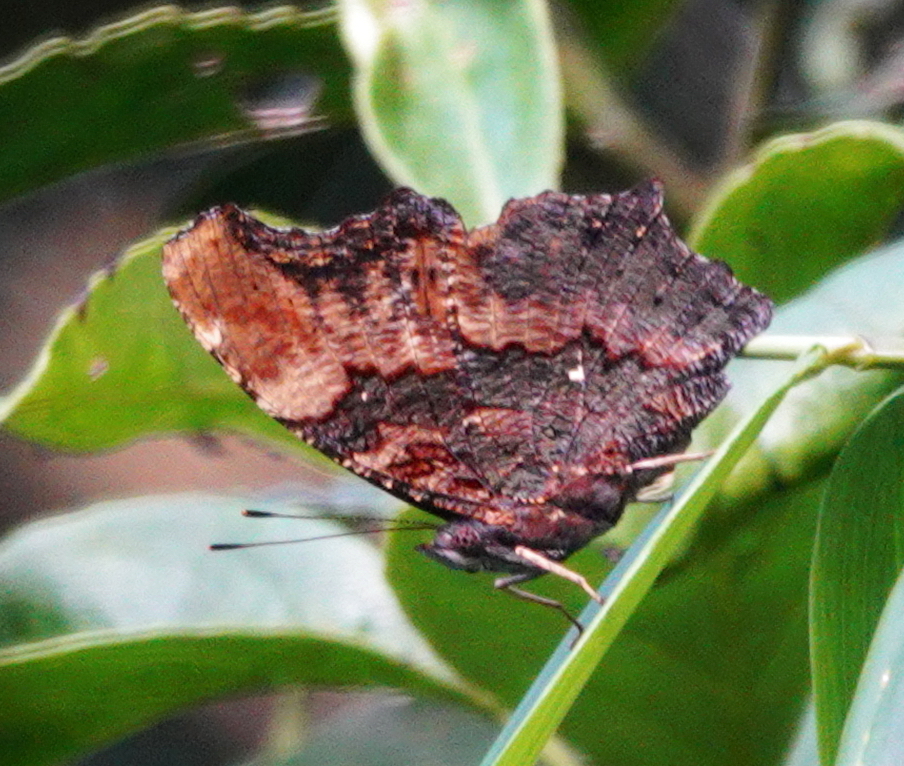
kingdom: Animalia
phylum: Arthropoda
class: Insecta
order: Lepidoptera
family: Nymphalidae
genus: Vanessa
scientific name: Vanessa Kaniska canace
